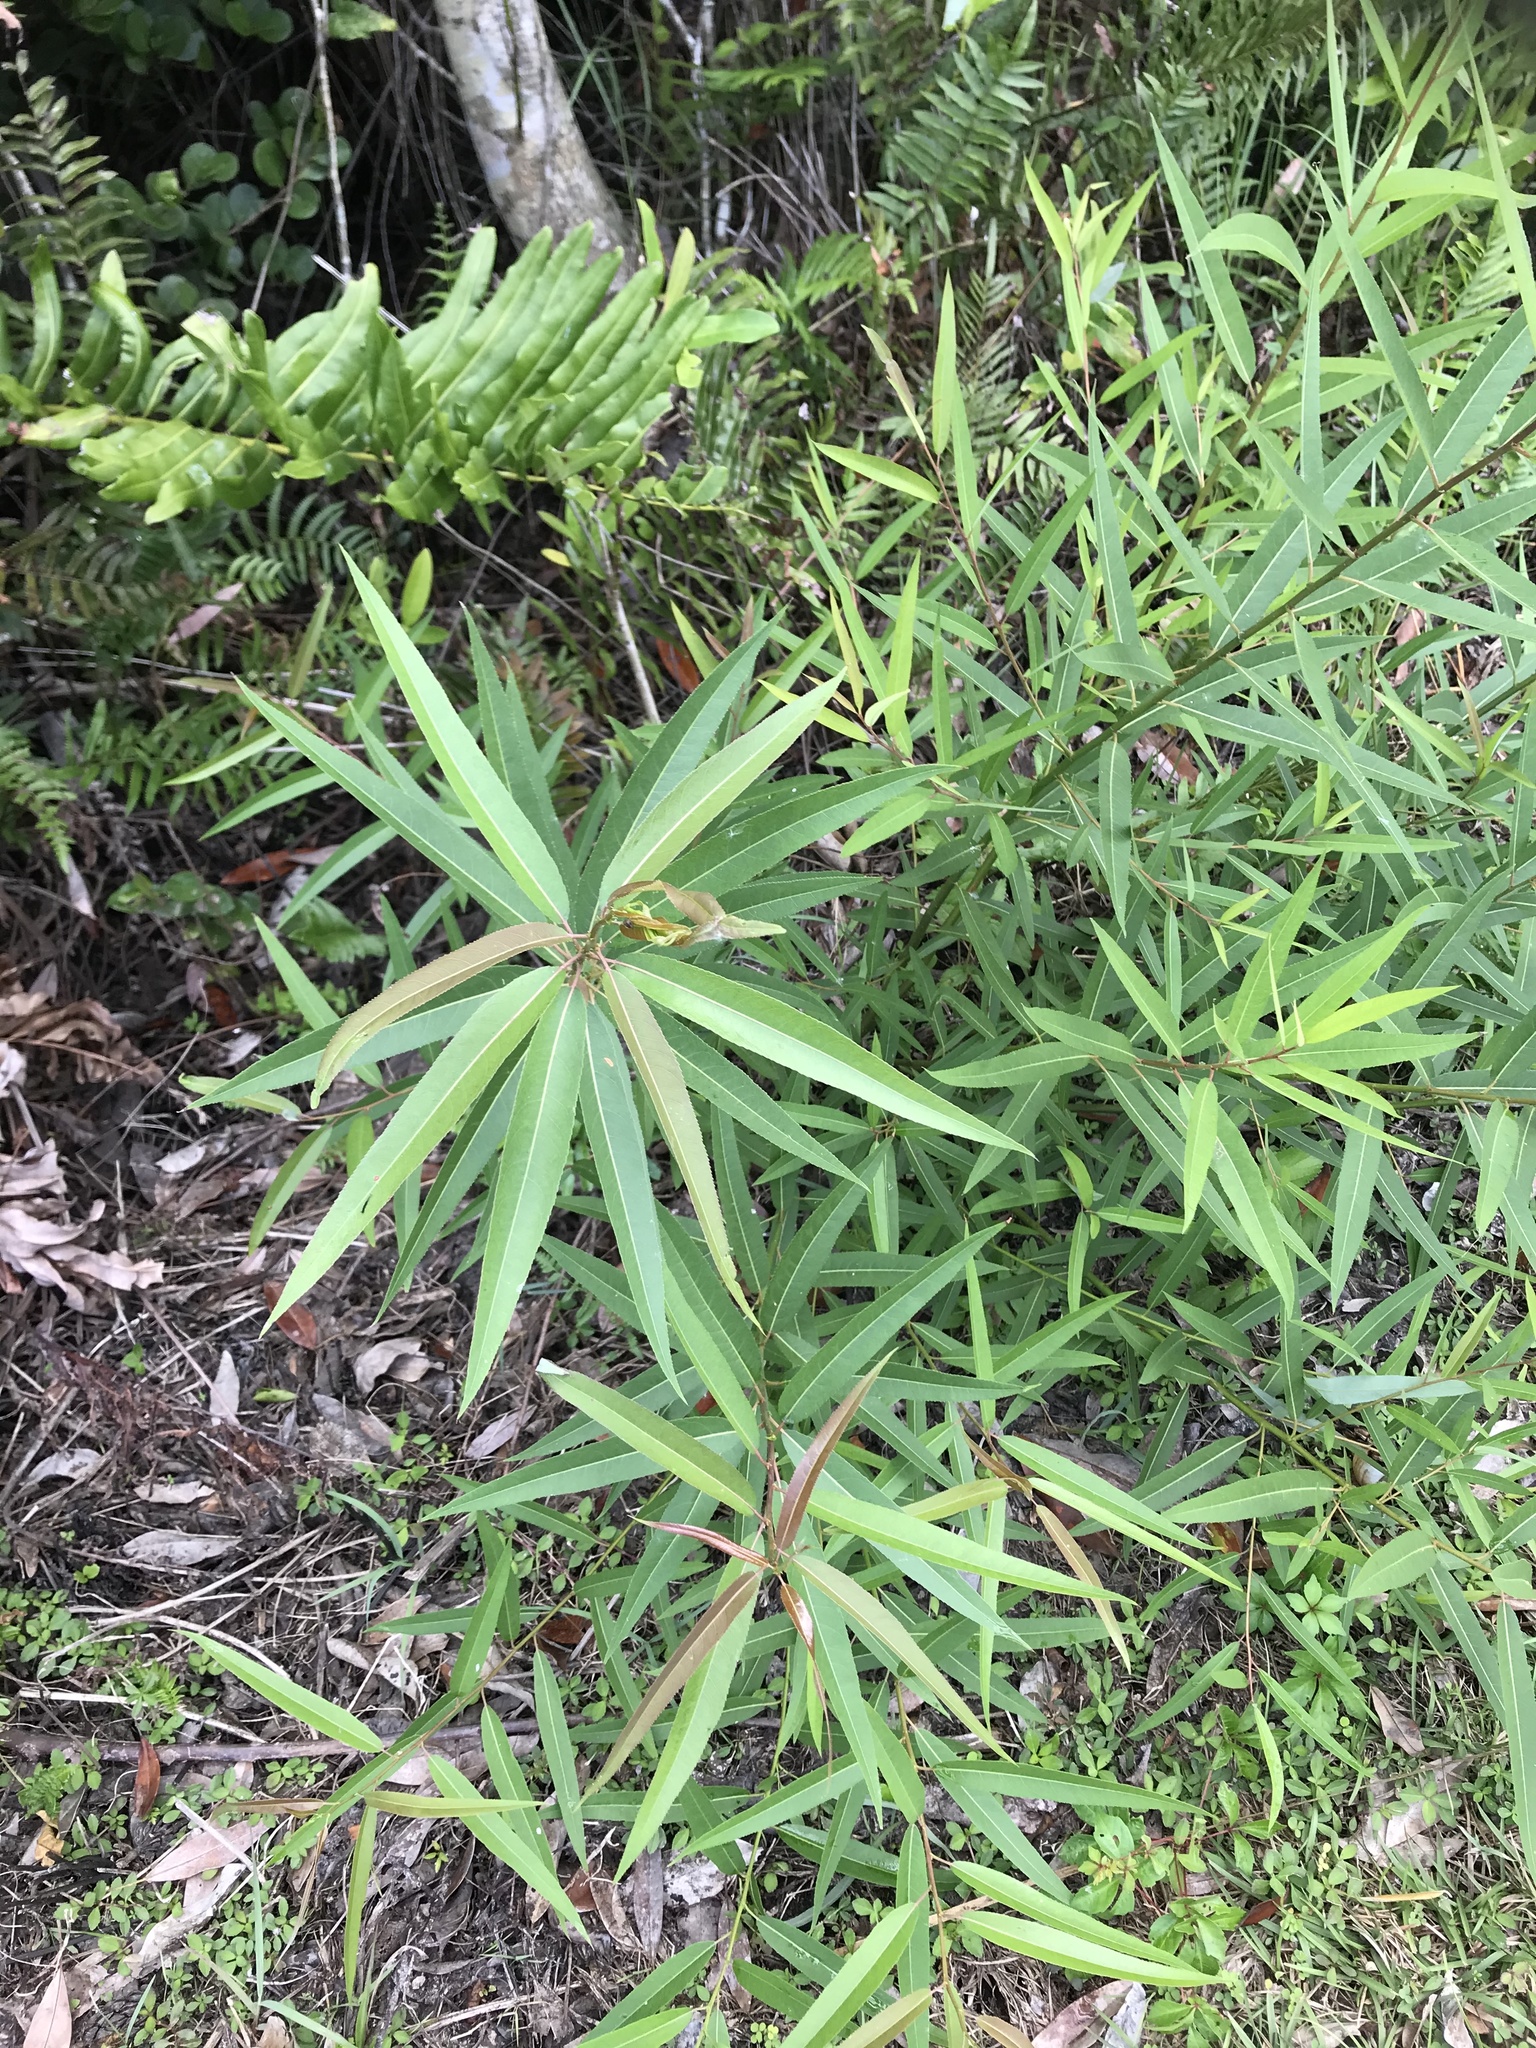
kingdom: Plantae
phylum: Tracheophyta
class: Magnoliopsida
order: Malpighiales
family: Salicaceae
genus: Salix
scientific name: Salix caroliniana
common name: Carolina willow
